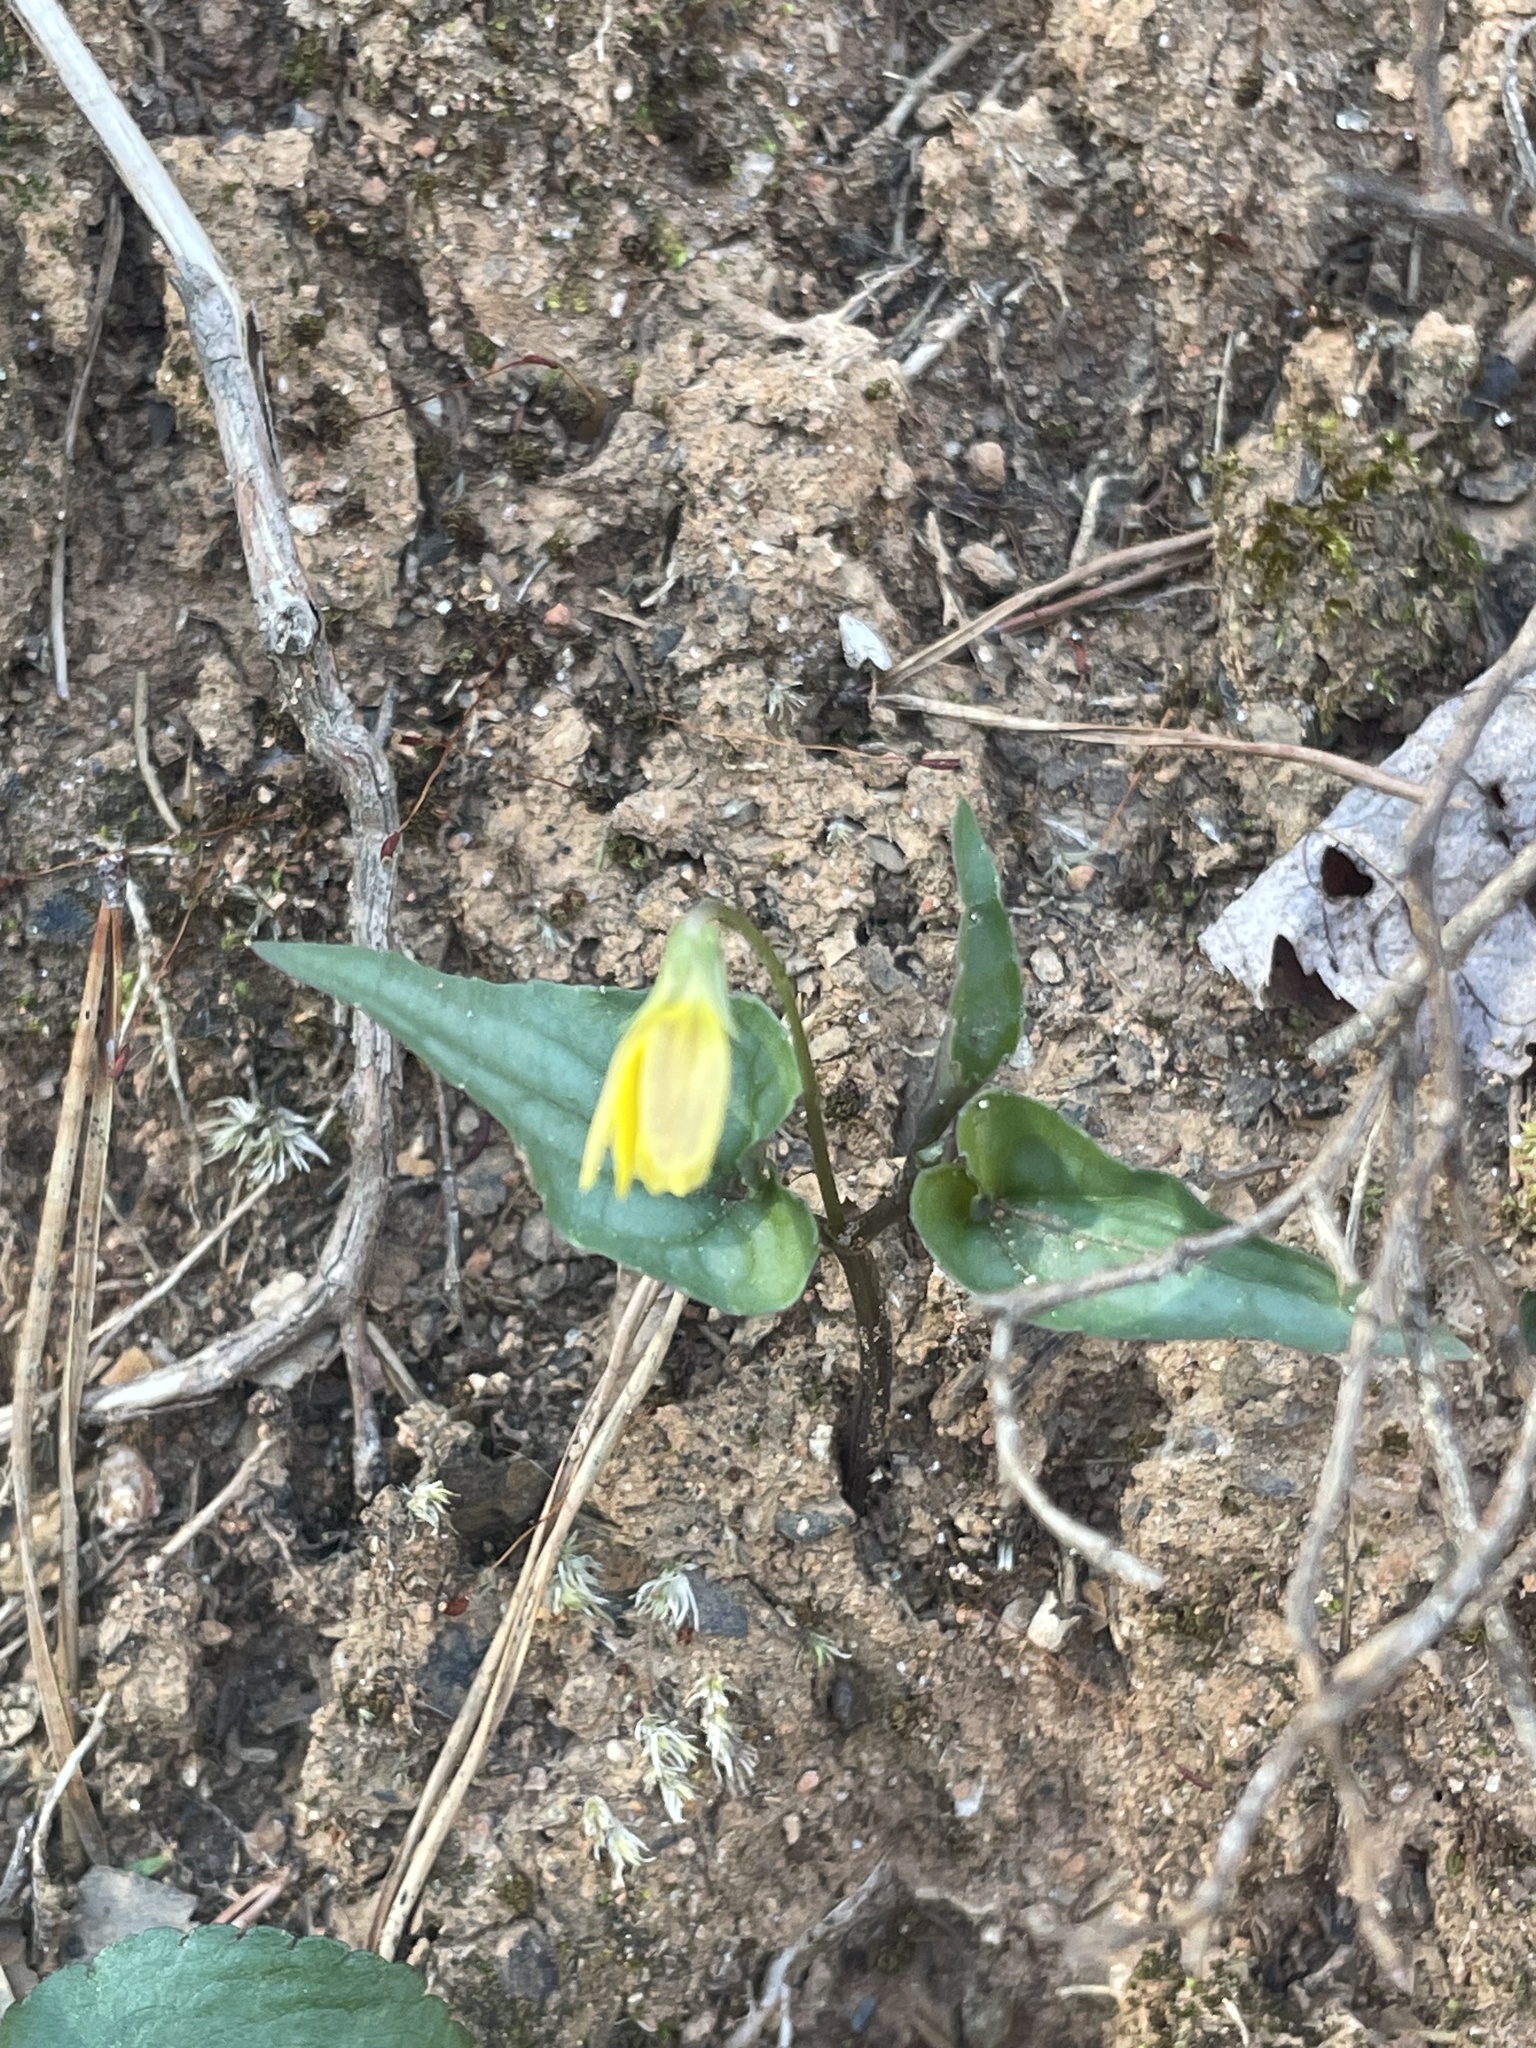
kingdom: Plantae
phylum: Tracheophyta
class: Magnoliopsida
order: Malpighiales
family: Violaceae
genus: Viola
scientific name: Viola hastata
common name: Spear-leaf violet
